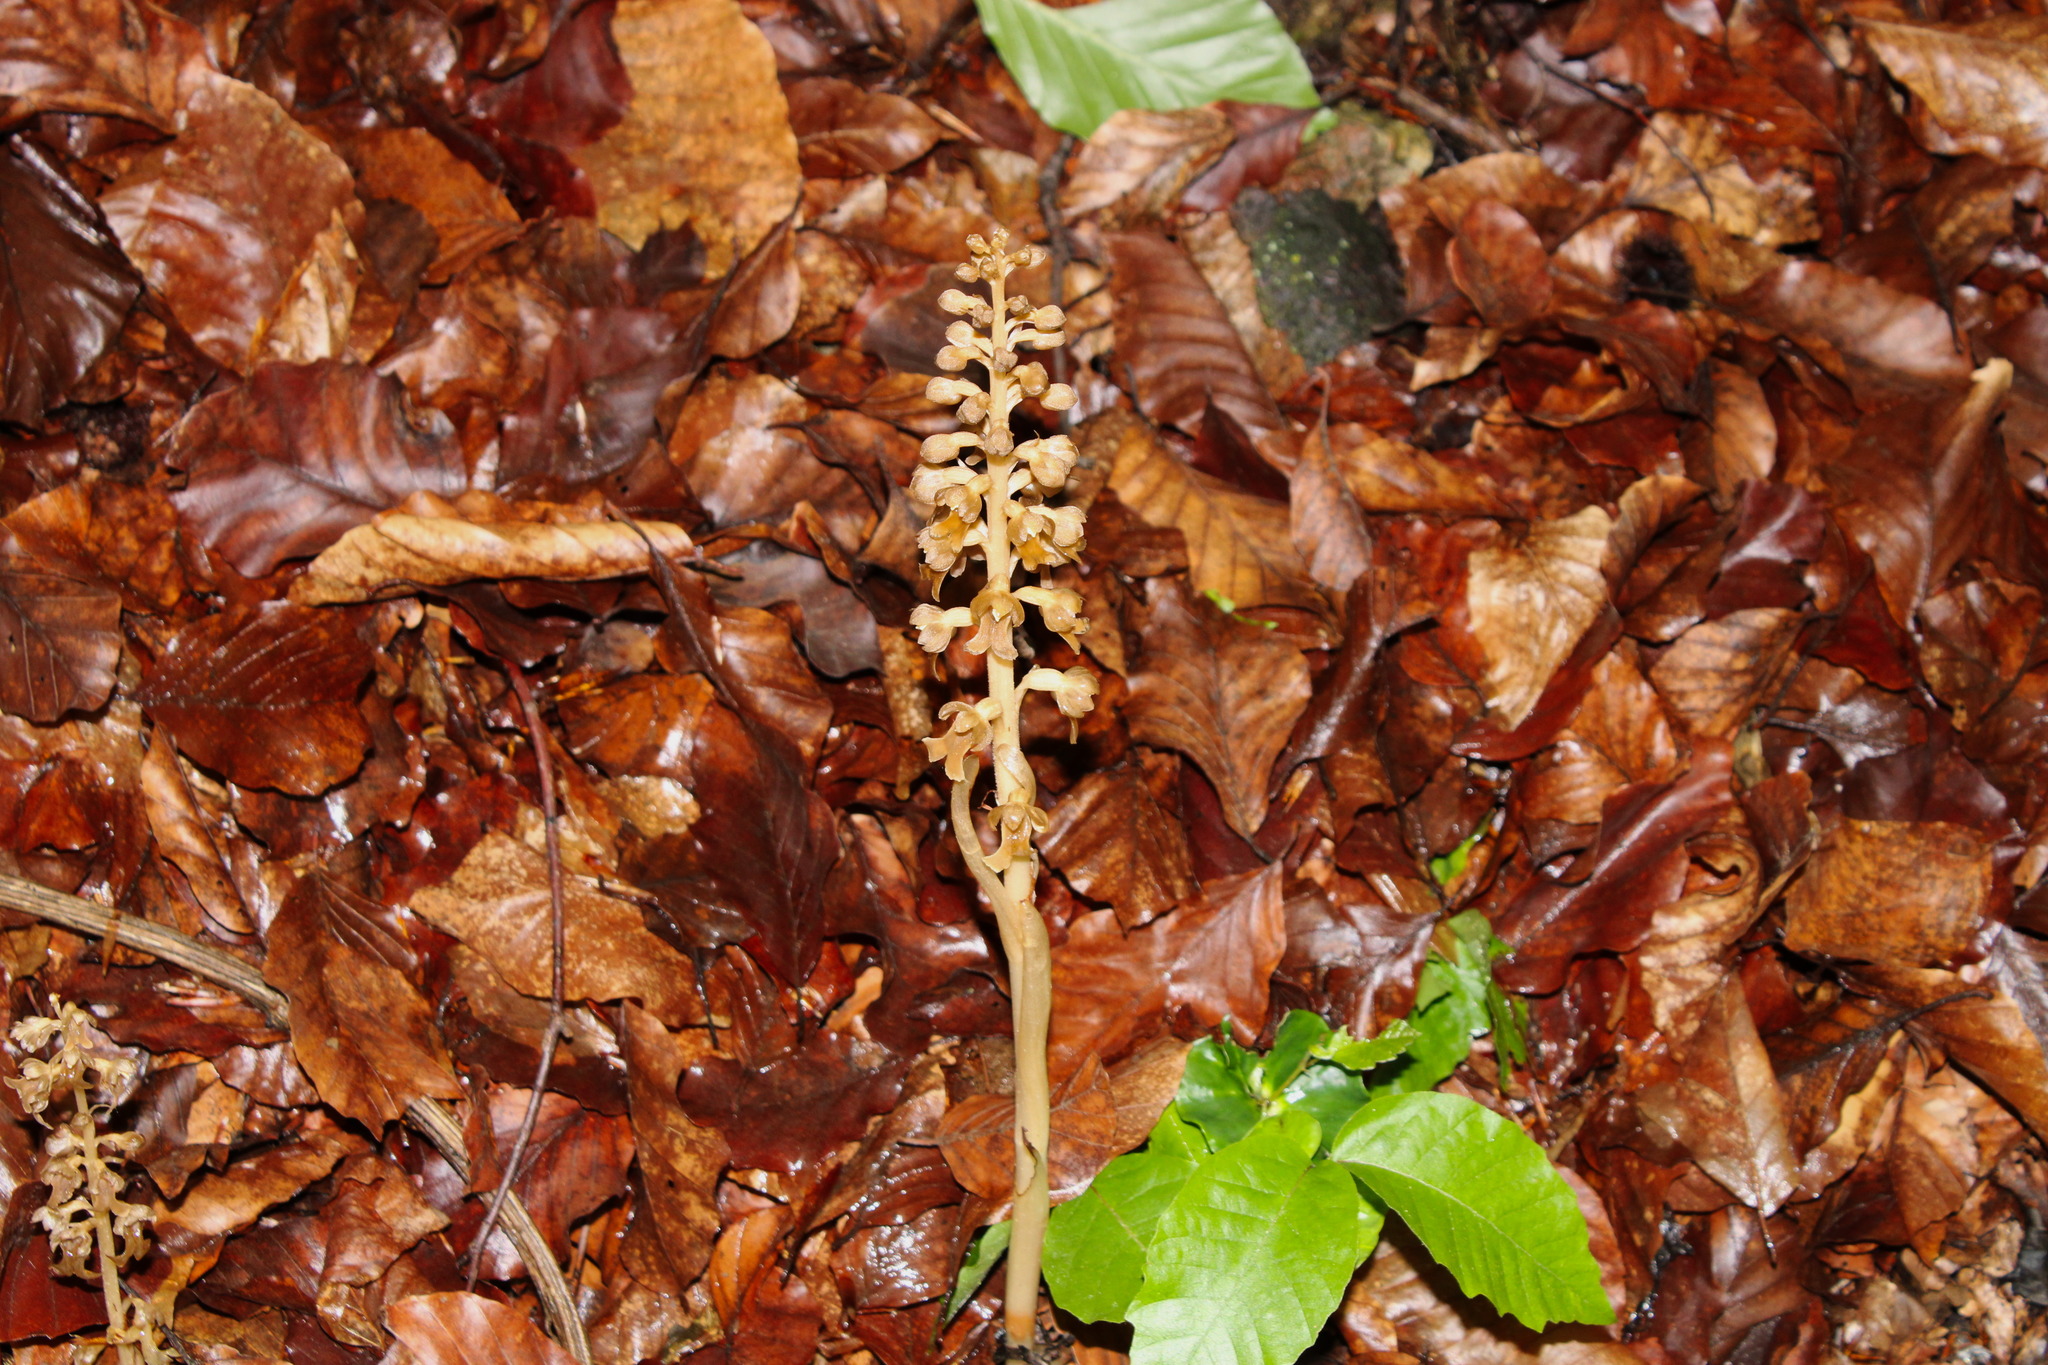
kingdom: Plantae
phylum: Tracheophyta
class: Liliopsida
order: Asparagales
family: Orchidaceae
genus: Neottia
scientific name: Neottia nidus-avis
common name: Bird's-nest orchid
